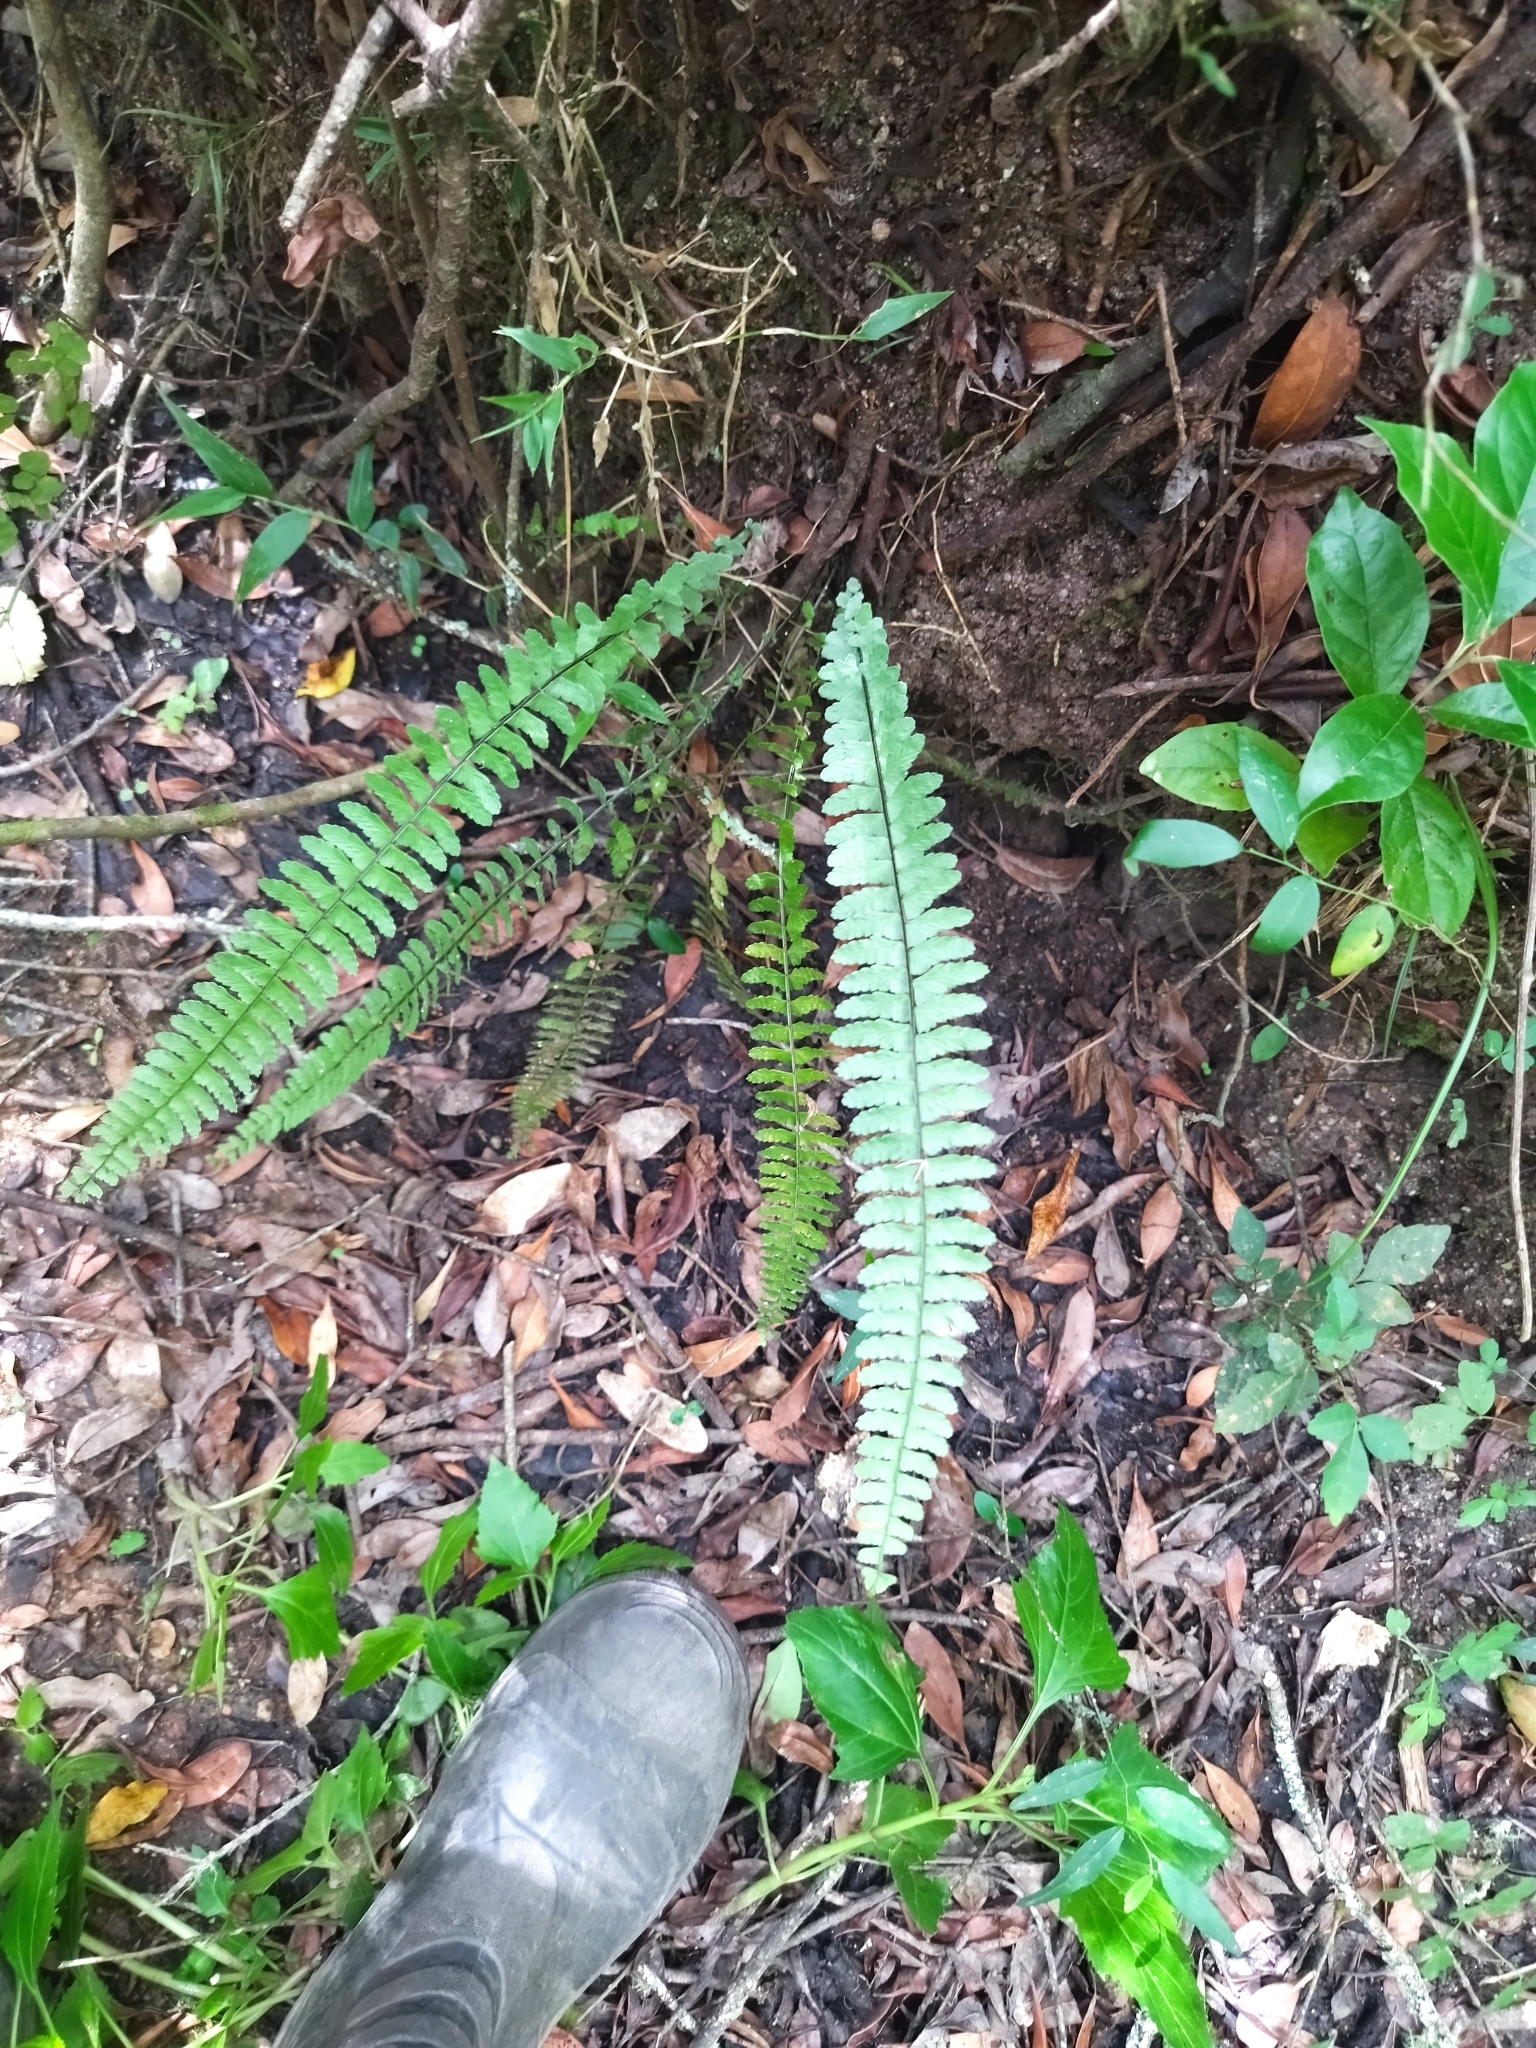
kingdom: Plantae
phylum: Tracheophyta
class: Polypodiopsida
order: Polypodiales
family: Aspleniaceae
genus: Asplenium
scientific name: Asplenium sellowianum
